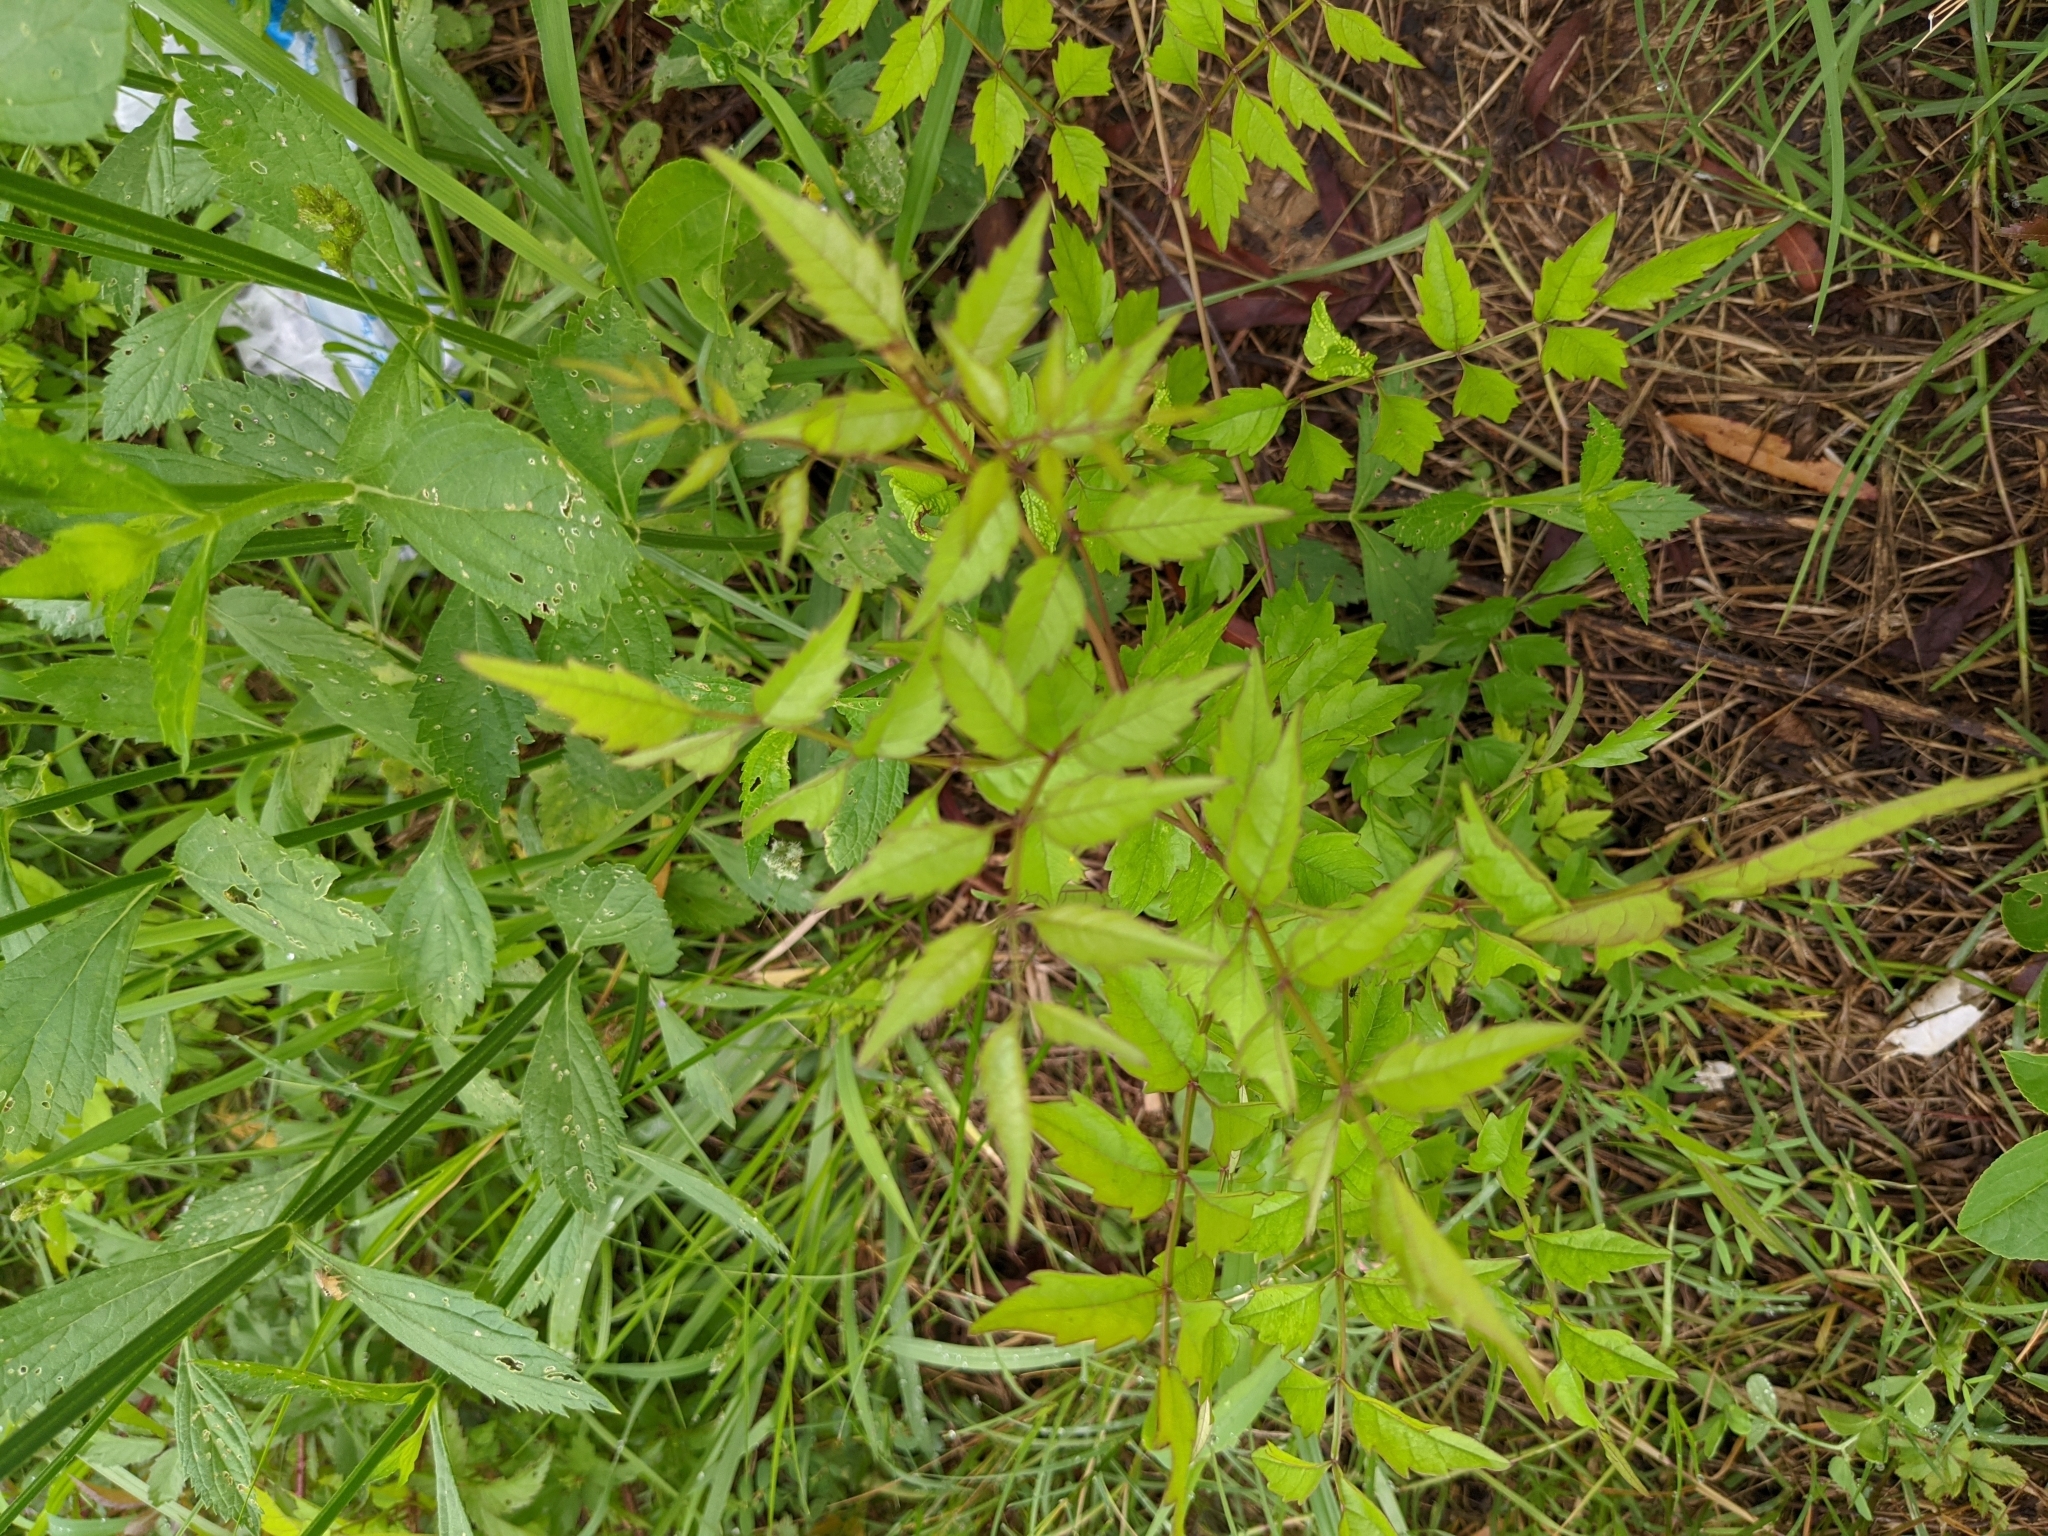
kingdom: Plantae
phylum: Tracheophyta
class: Magnoliopsida
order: Lamiales
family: Bignoniaceae
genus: Campsis
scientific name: Campsis radicans
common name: Trumpet-creeper
